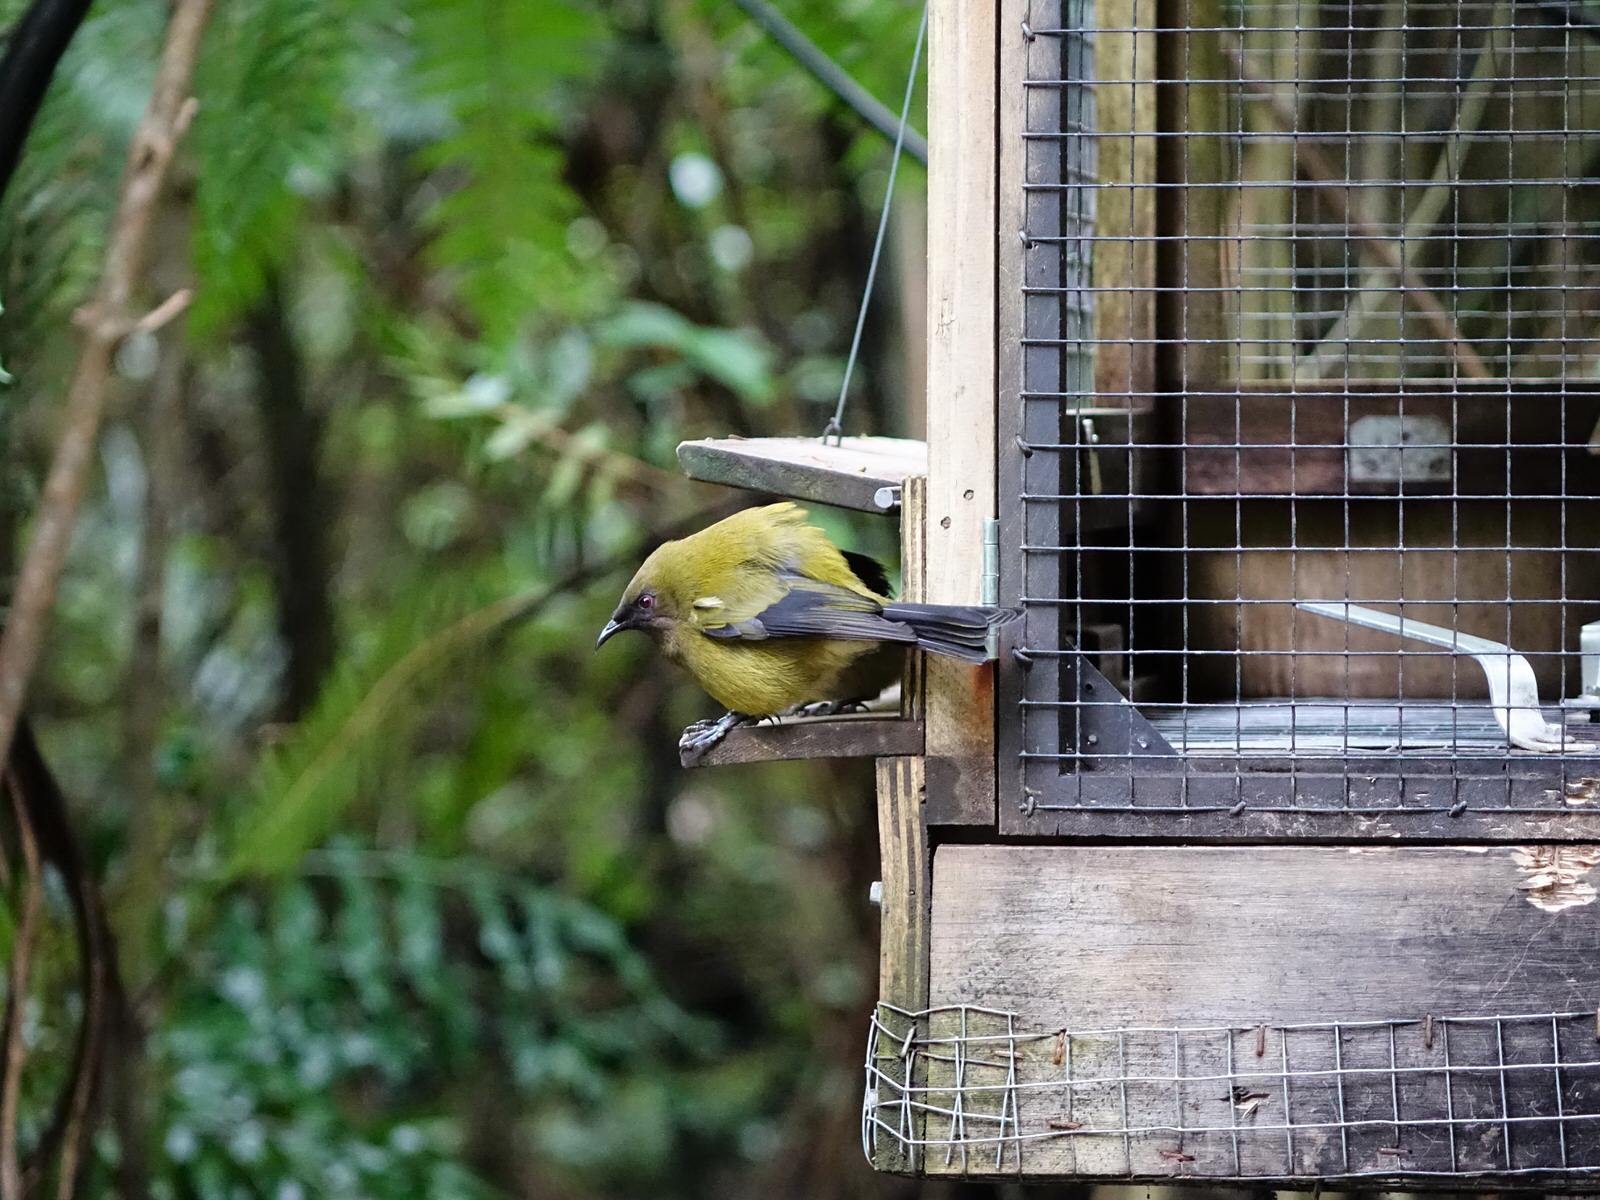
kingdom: Animalia
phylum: Chordata
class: Aves
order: Passeriformes
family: Meliphagidae
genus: Anthornis
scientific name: Anthornis melanura
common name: New zealand bellbird
